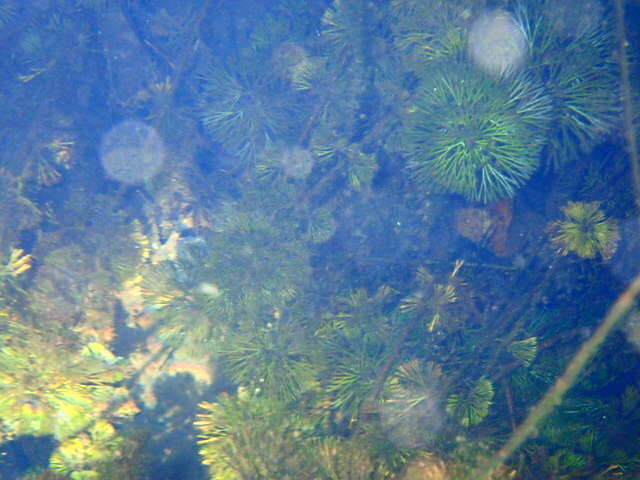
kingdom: Plantae
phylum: Tracheophyta
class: Magnoliopsida
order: Nymphaeales
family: Cabombaceae
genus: Cabomba
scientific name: Cabomba caroliniana
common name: Fanwort
